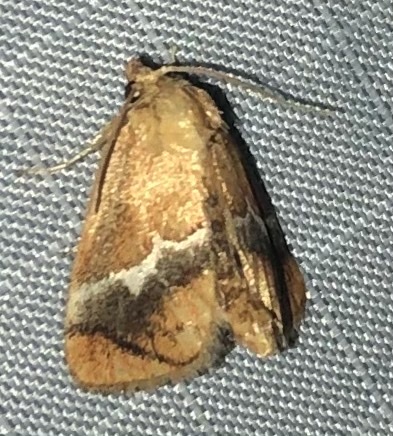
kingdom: Animalia
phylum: Arthropoda
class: Insecta
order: Lepidoptera
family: Limacodidae
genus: Lithacodes
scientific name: Lithacodes fasciola
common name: Yellow-shouldered slug moth
